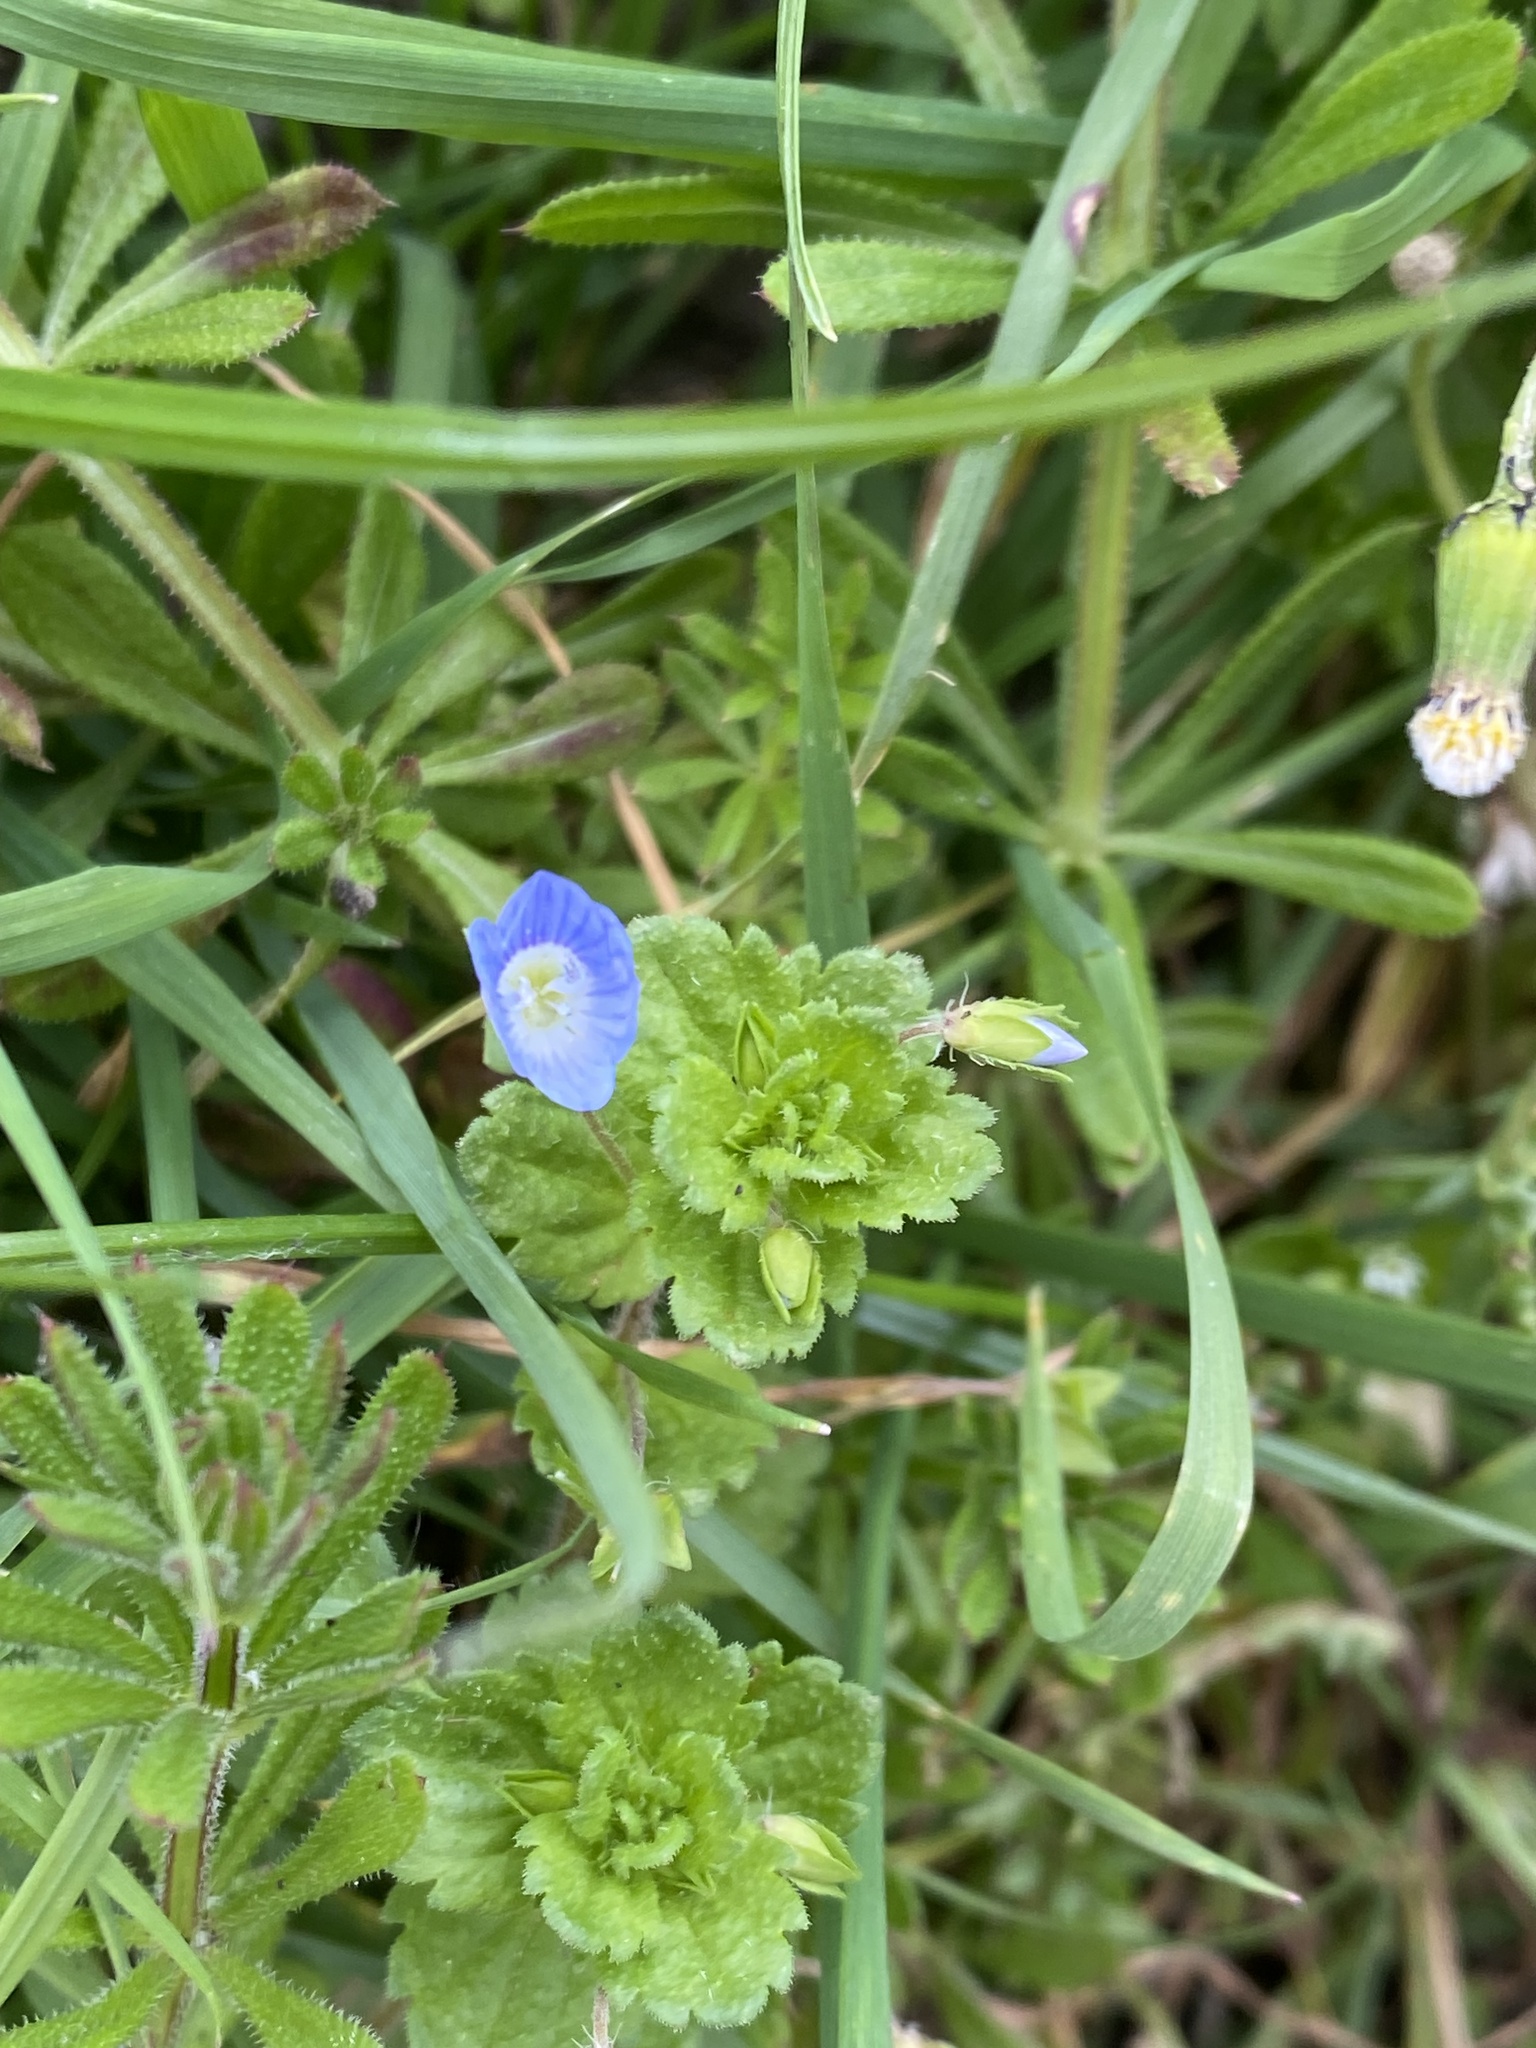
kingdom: Plantae
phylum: Tracheophyta
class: Magnoliopsida
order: Lamiales
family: Plantaginaceae
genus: Veronica
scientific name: Veronica persica
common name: Common field-speedwell
